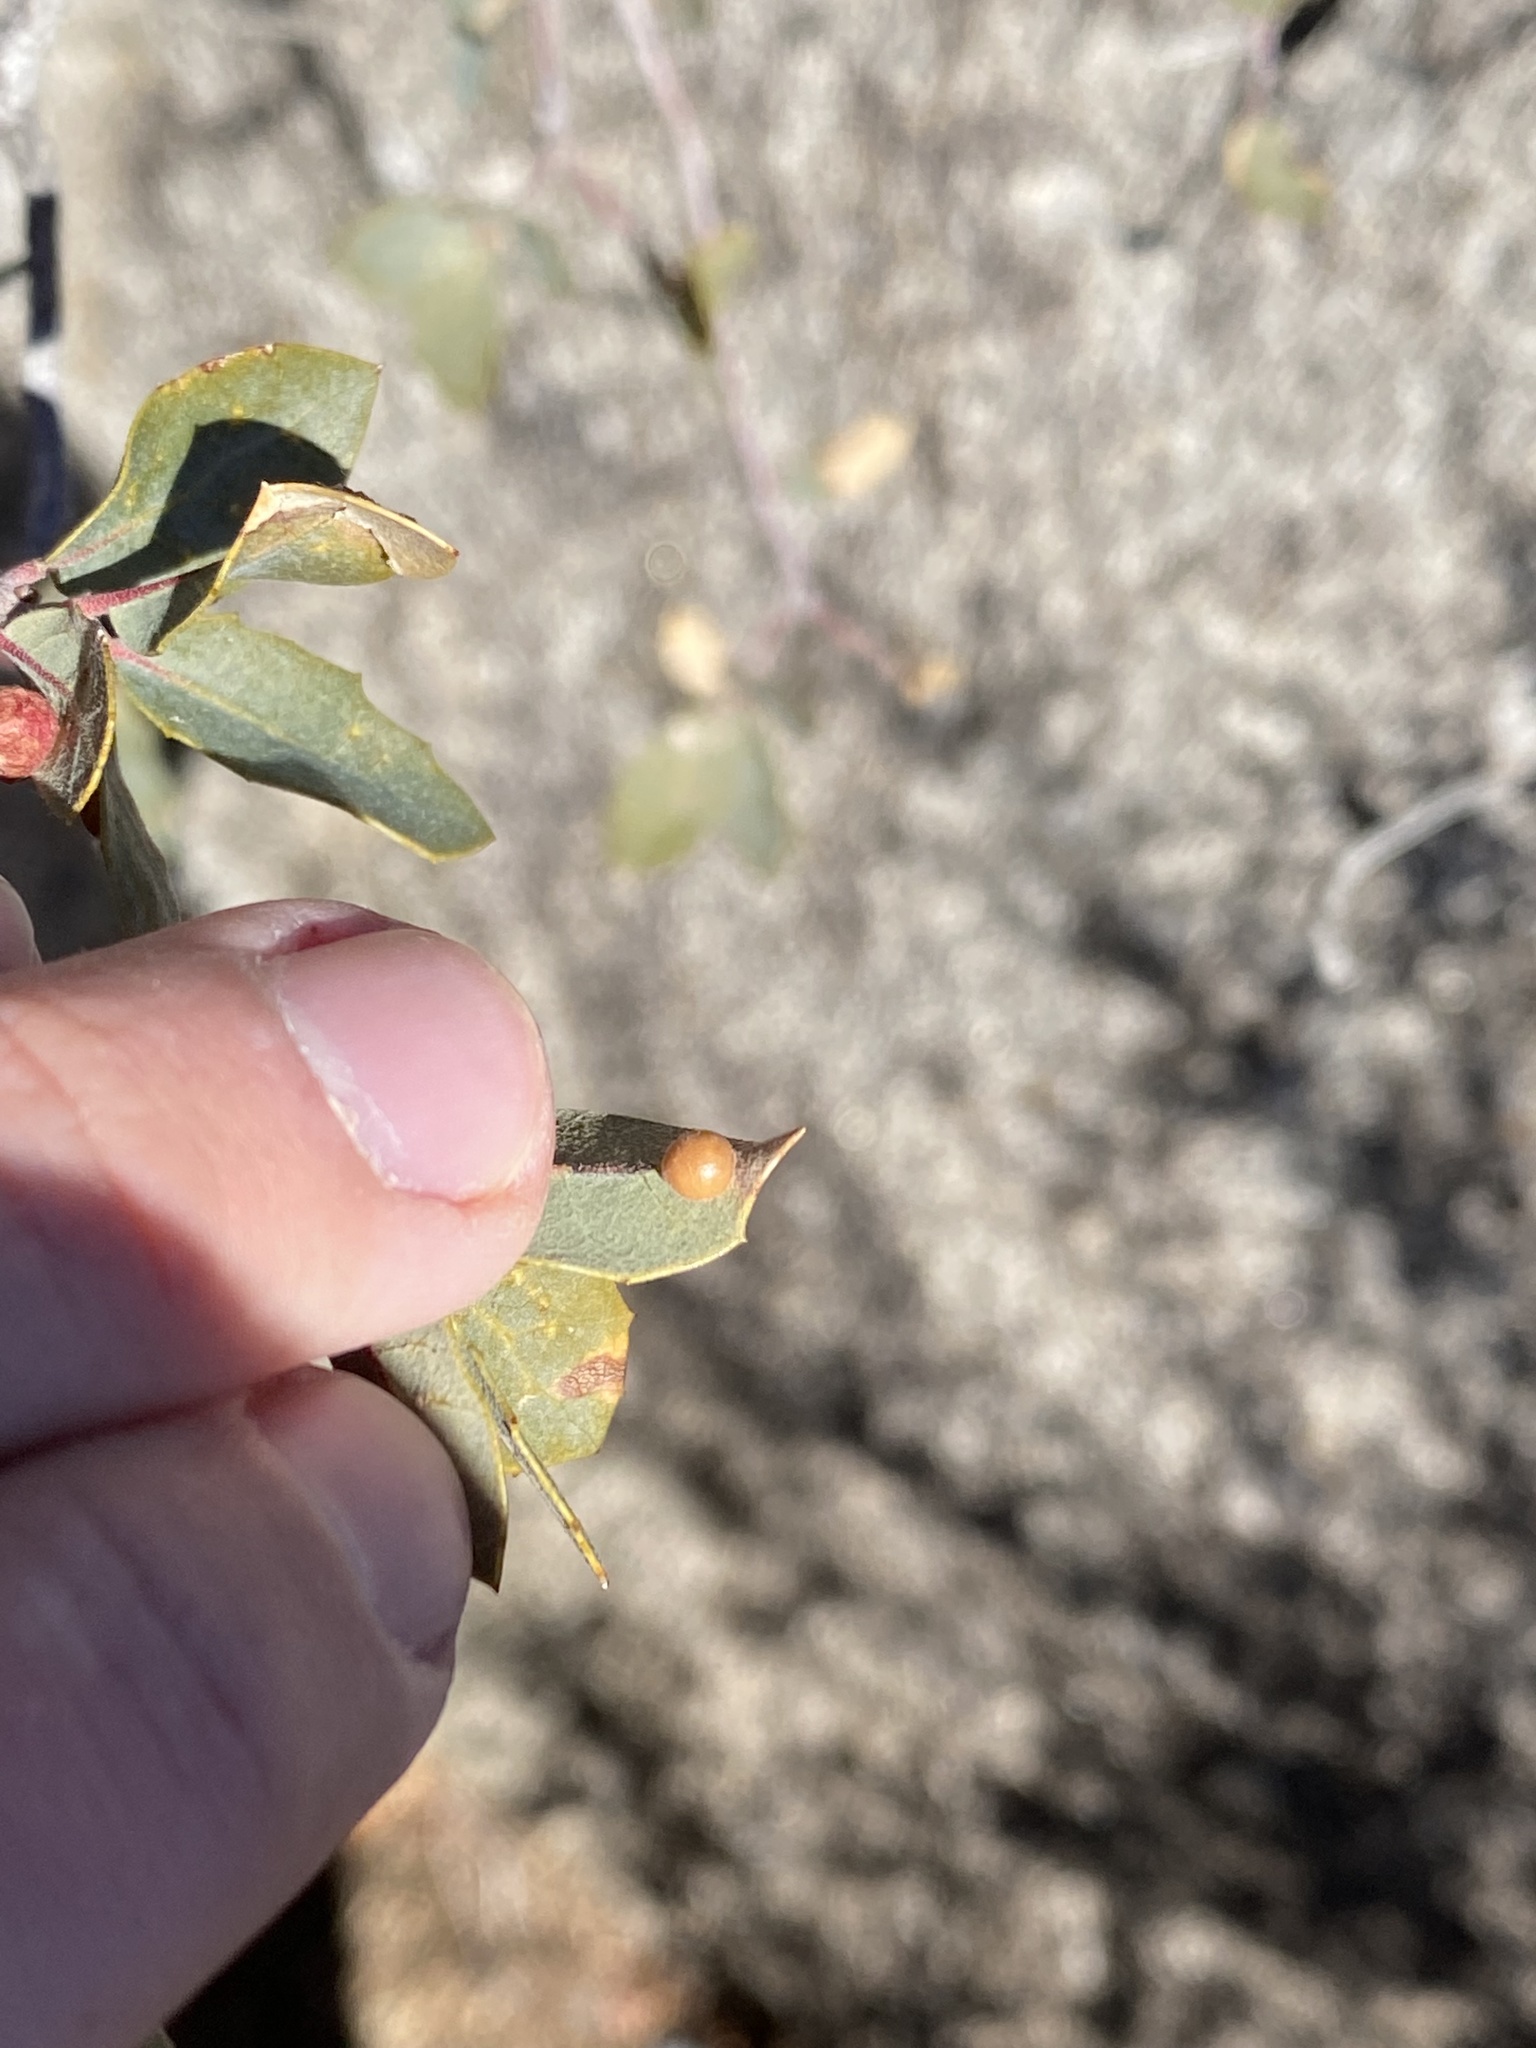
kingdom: Animalia
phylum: Arthropoda
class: Insecta
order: Hymenoptera
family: Cynipidae
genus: Biorhiza
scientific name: Biorhiza
